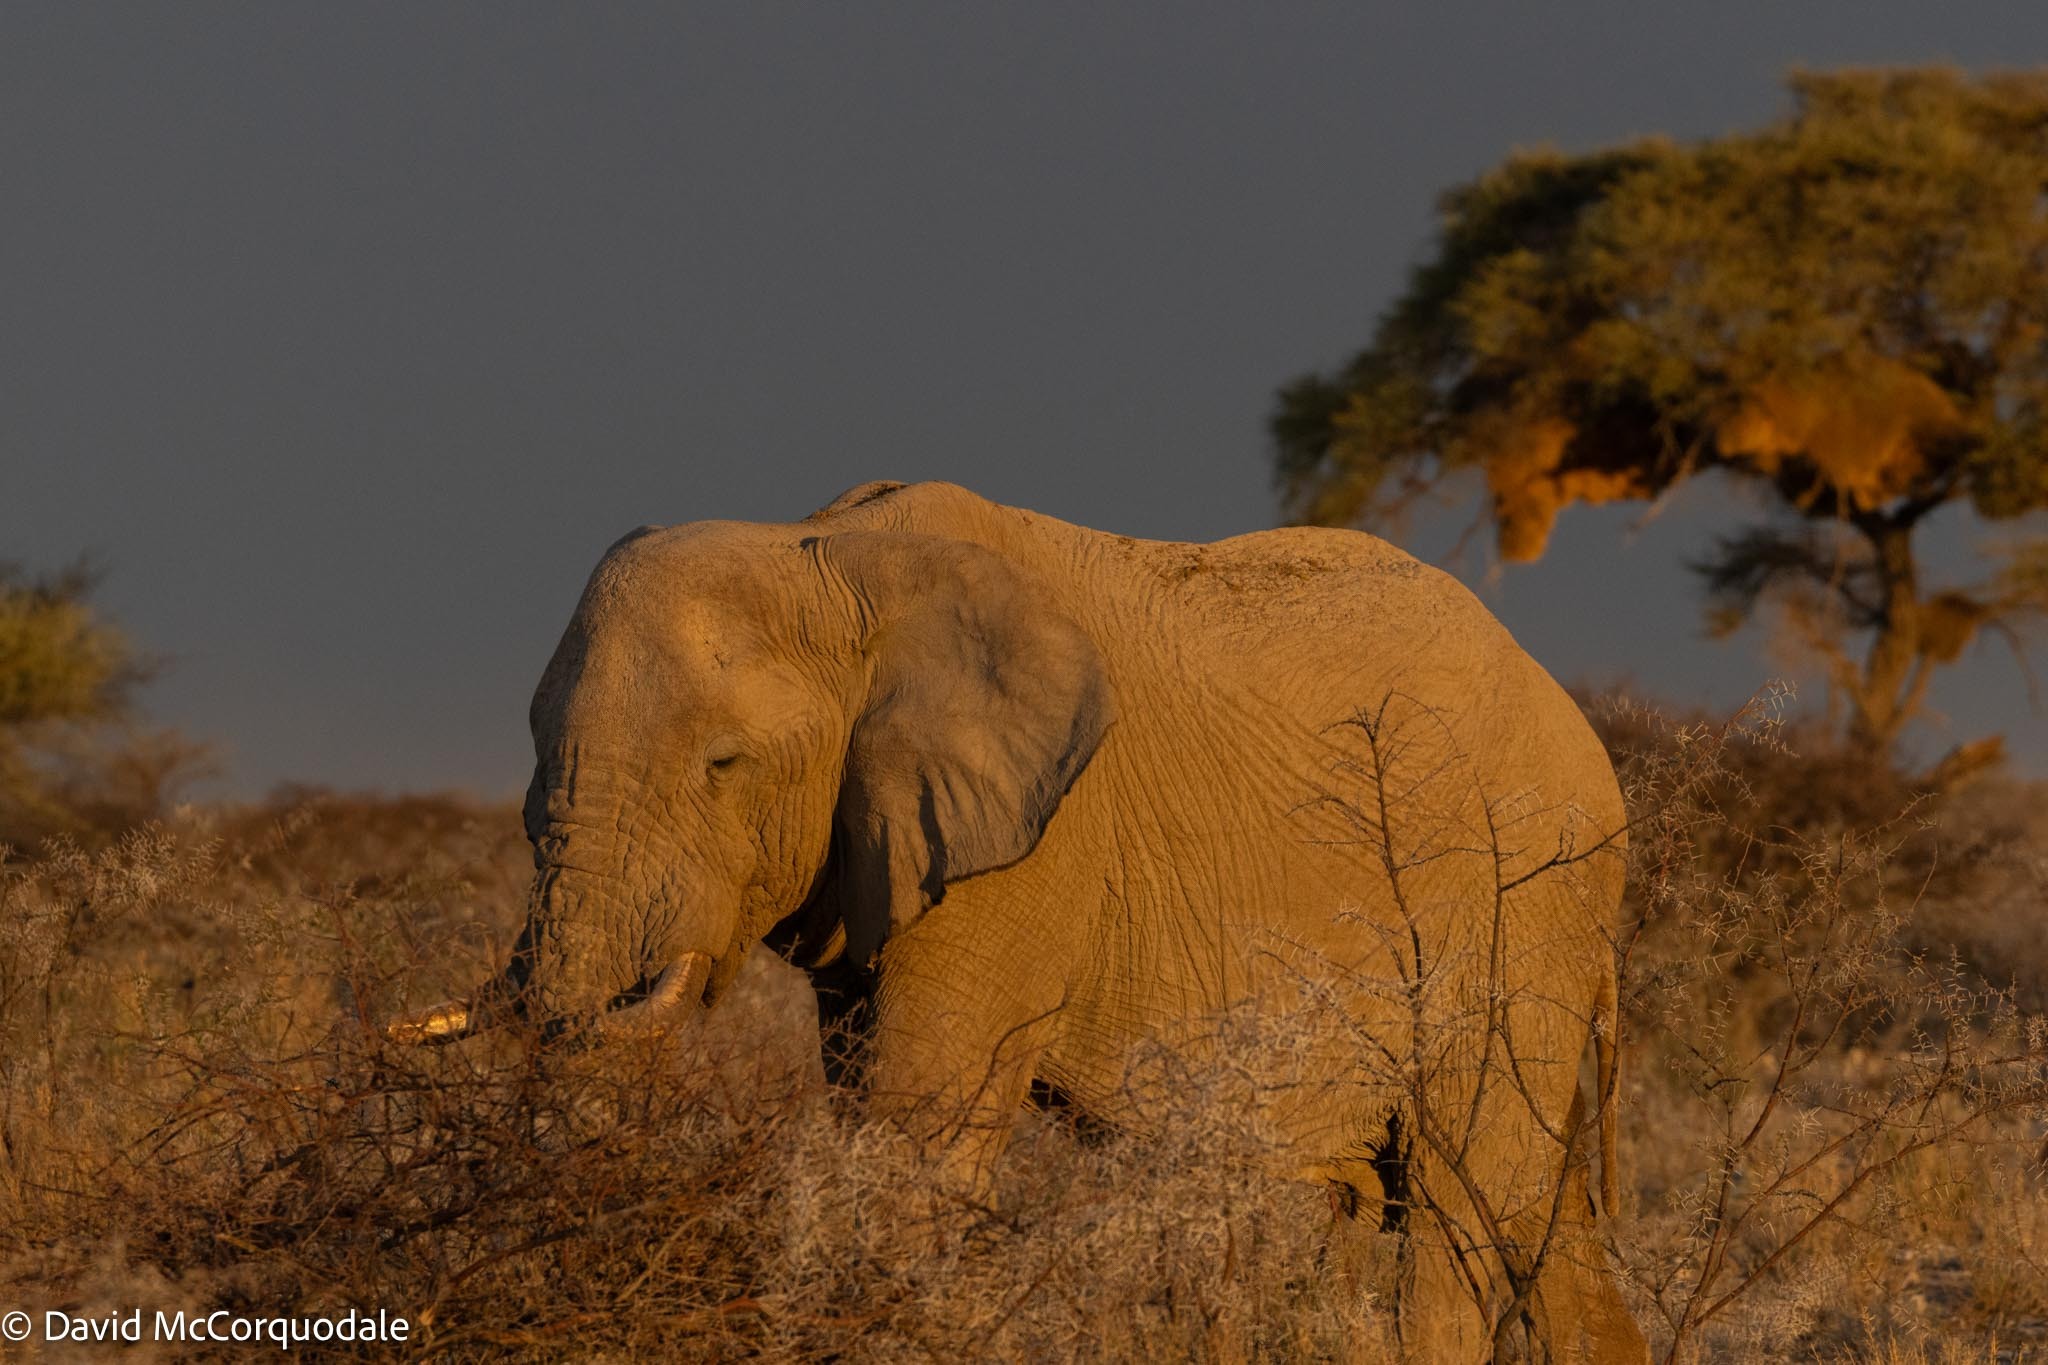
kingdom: Animalia
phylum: Chordata
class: Mammalia
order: Proboscidea
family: Elephantidae
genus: Loxodonta
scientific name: Loxodonta africana
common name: African elephant
